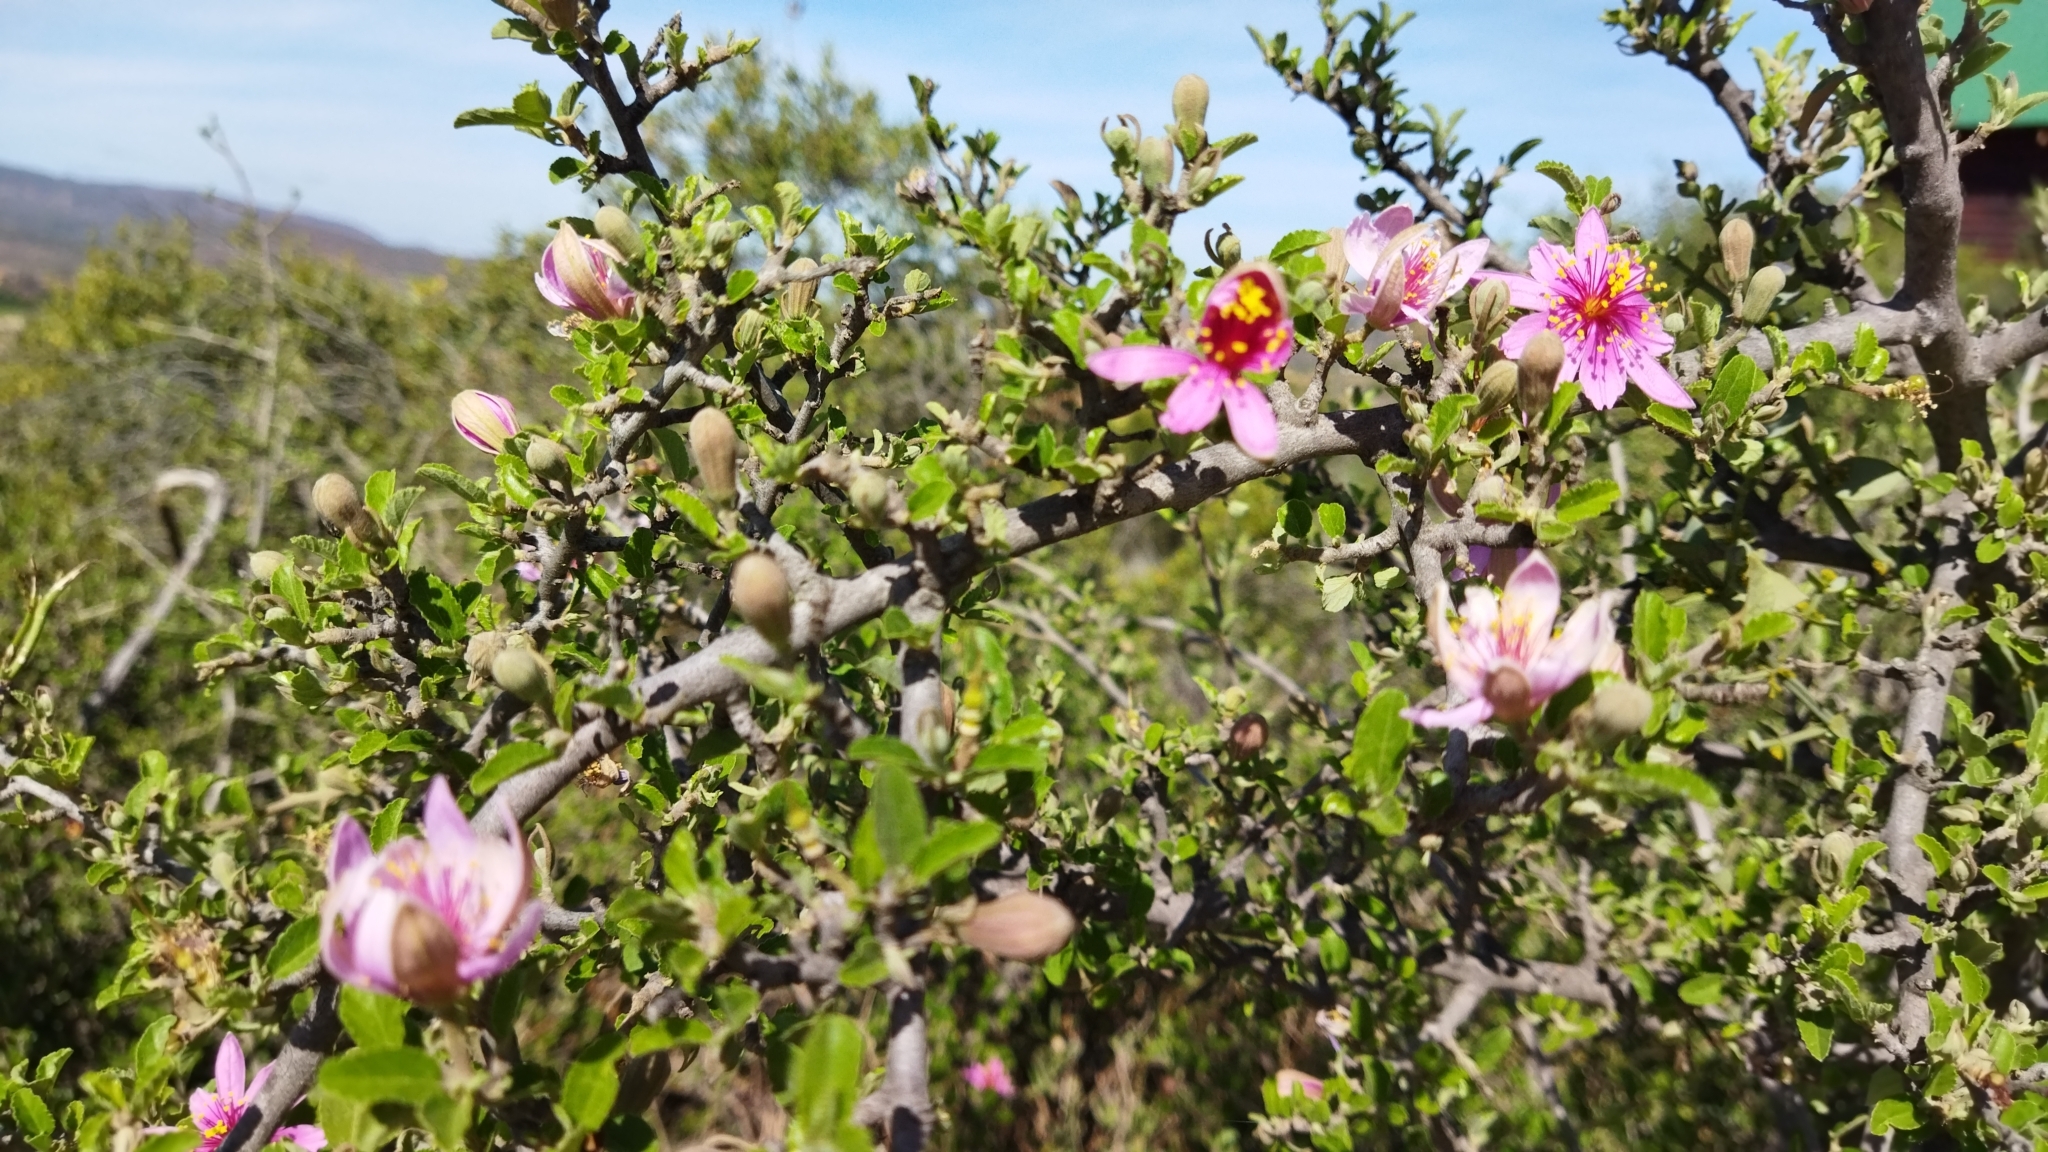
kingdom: Plantae
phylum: Tracheophyta
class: Magnoliopsida
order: Malvales
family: Malvaceae
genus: Grewia
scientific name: Grewia robusta
